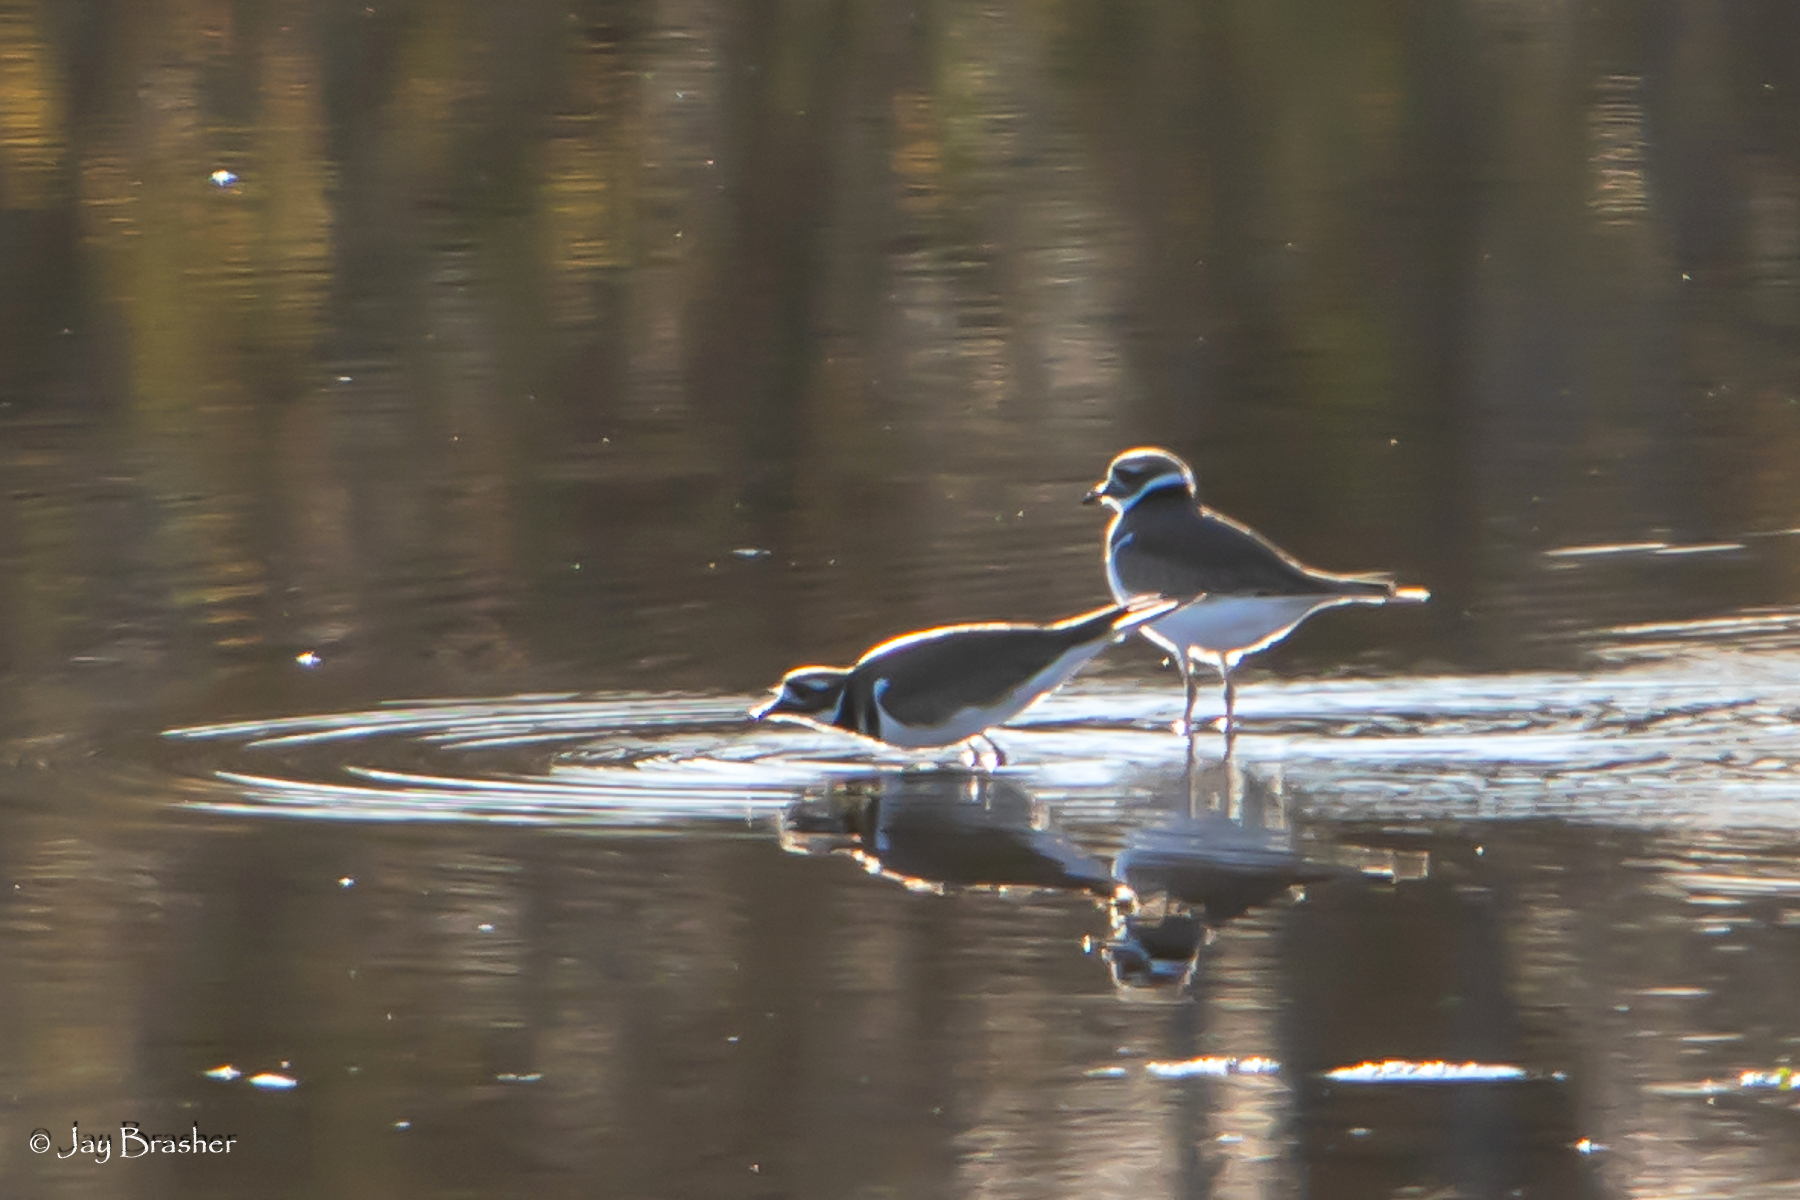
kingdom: Animalia
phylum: Chordata
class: Aves
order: Charadriiformes
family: Charadriidae
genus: Charadrius
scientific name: Charadrius vociferus
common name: Killdeer
